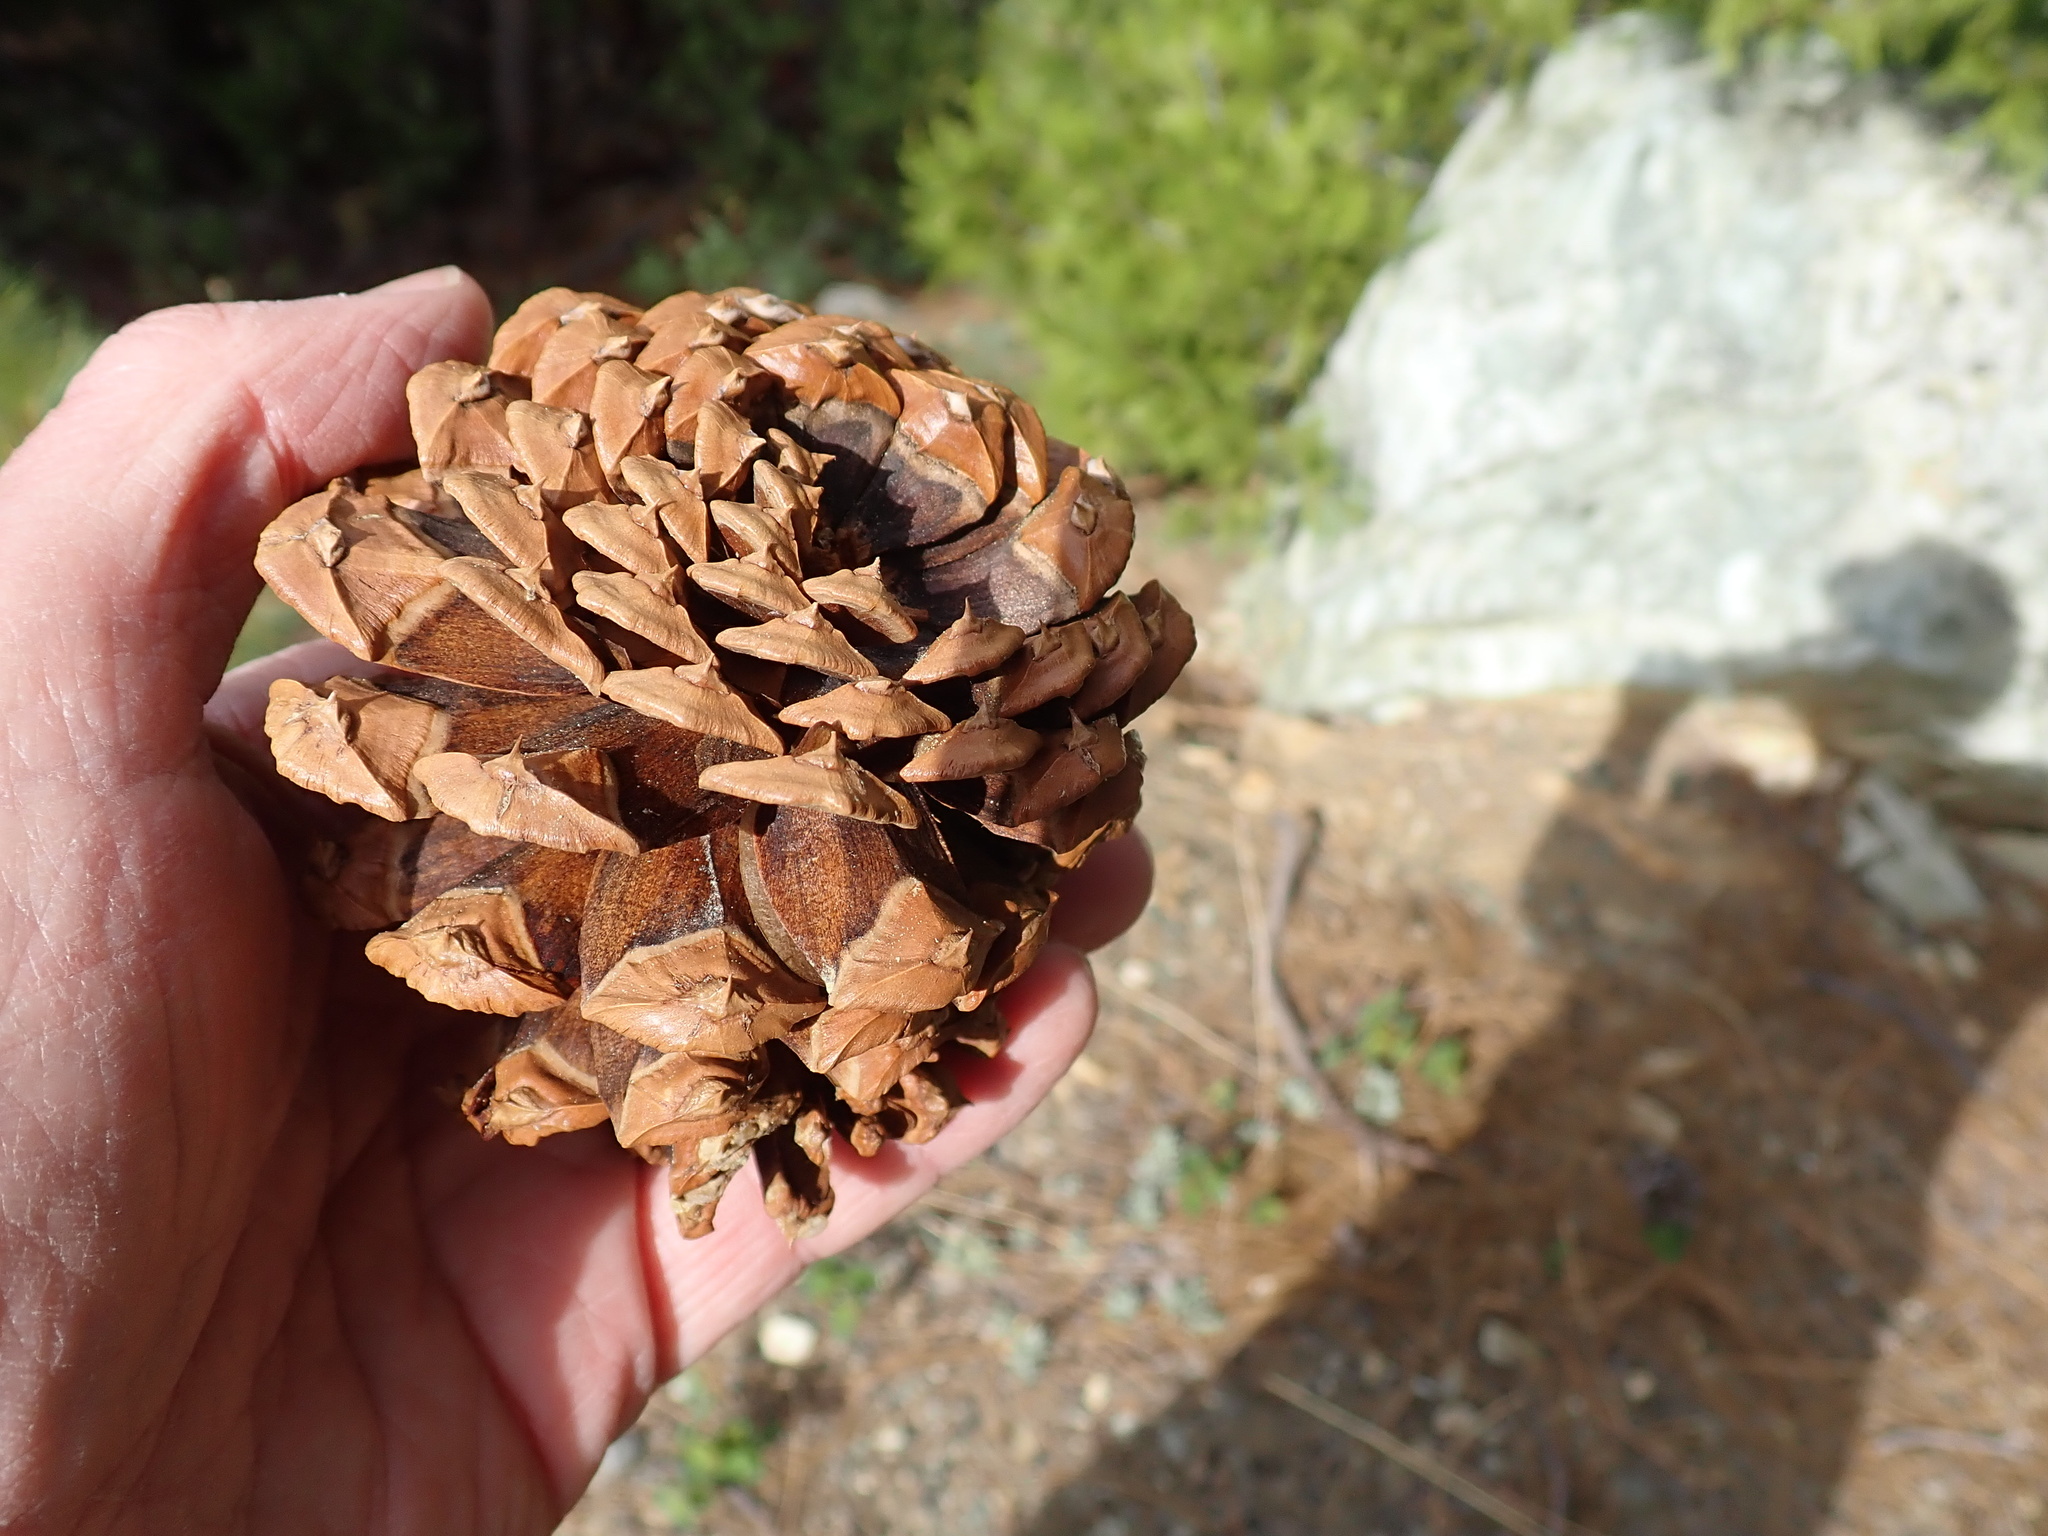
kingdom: Plantae
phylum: Tracheophyta
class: Pinopsida
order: Pinales
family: Pinaceae
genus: Pinus
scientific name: Pinus ponderosa
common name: Western yellow-pine
